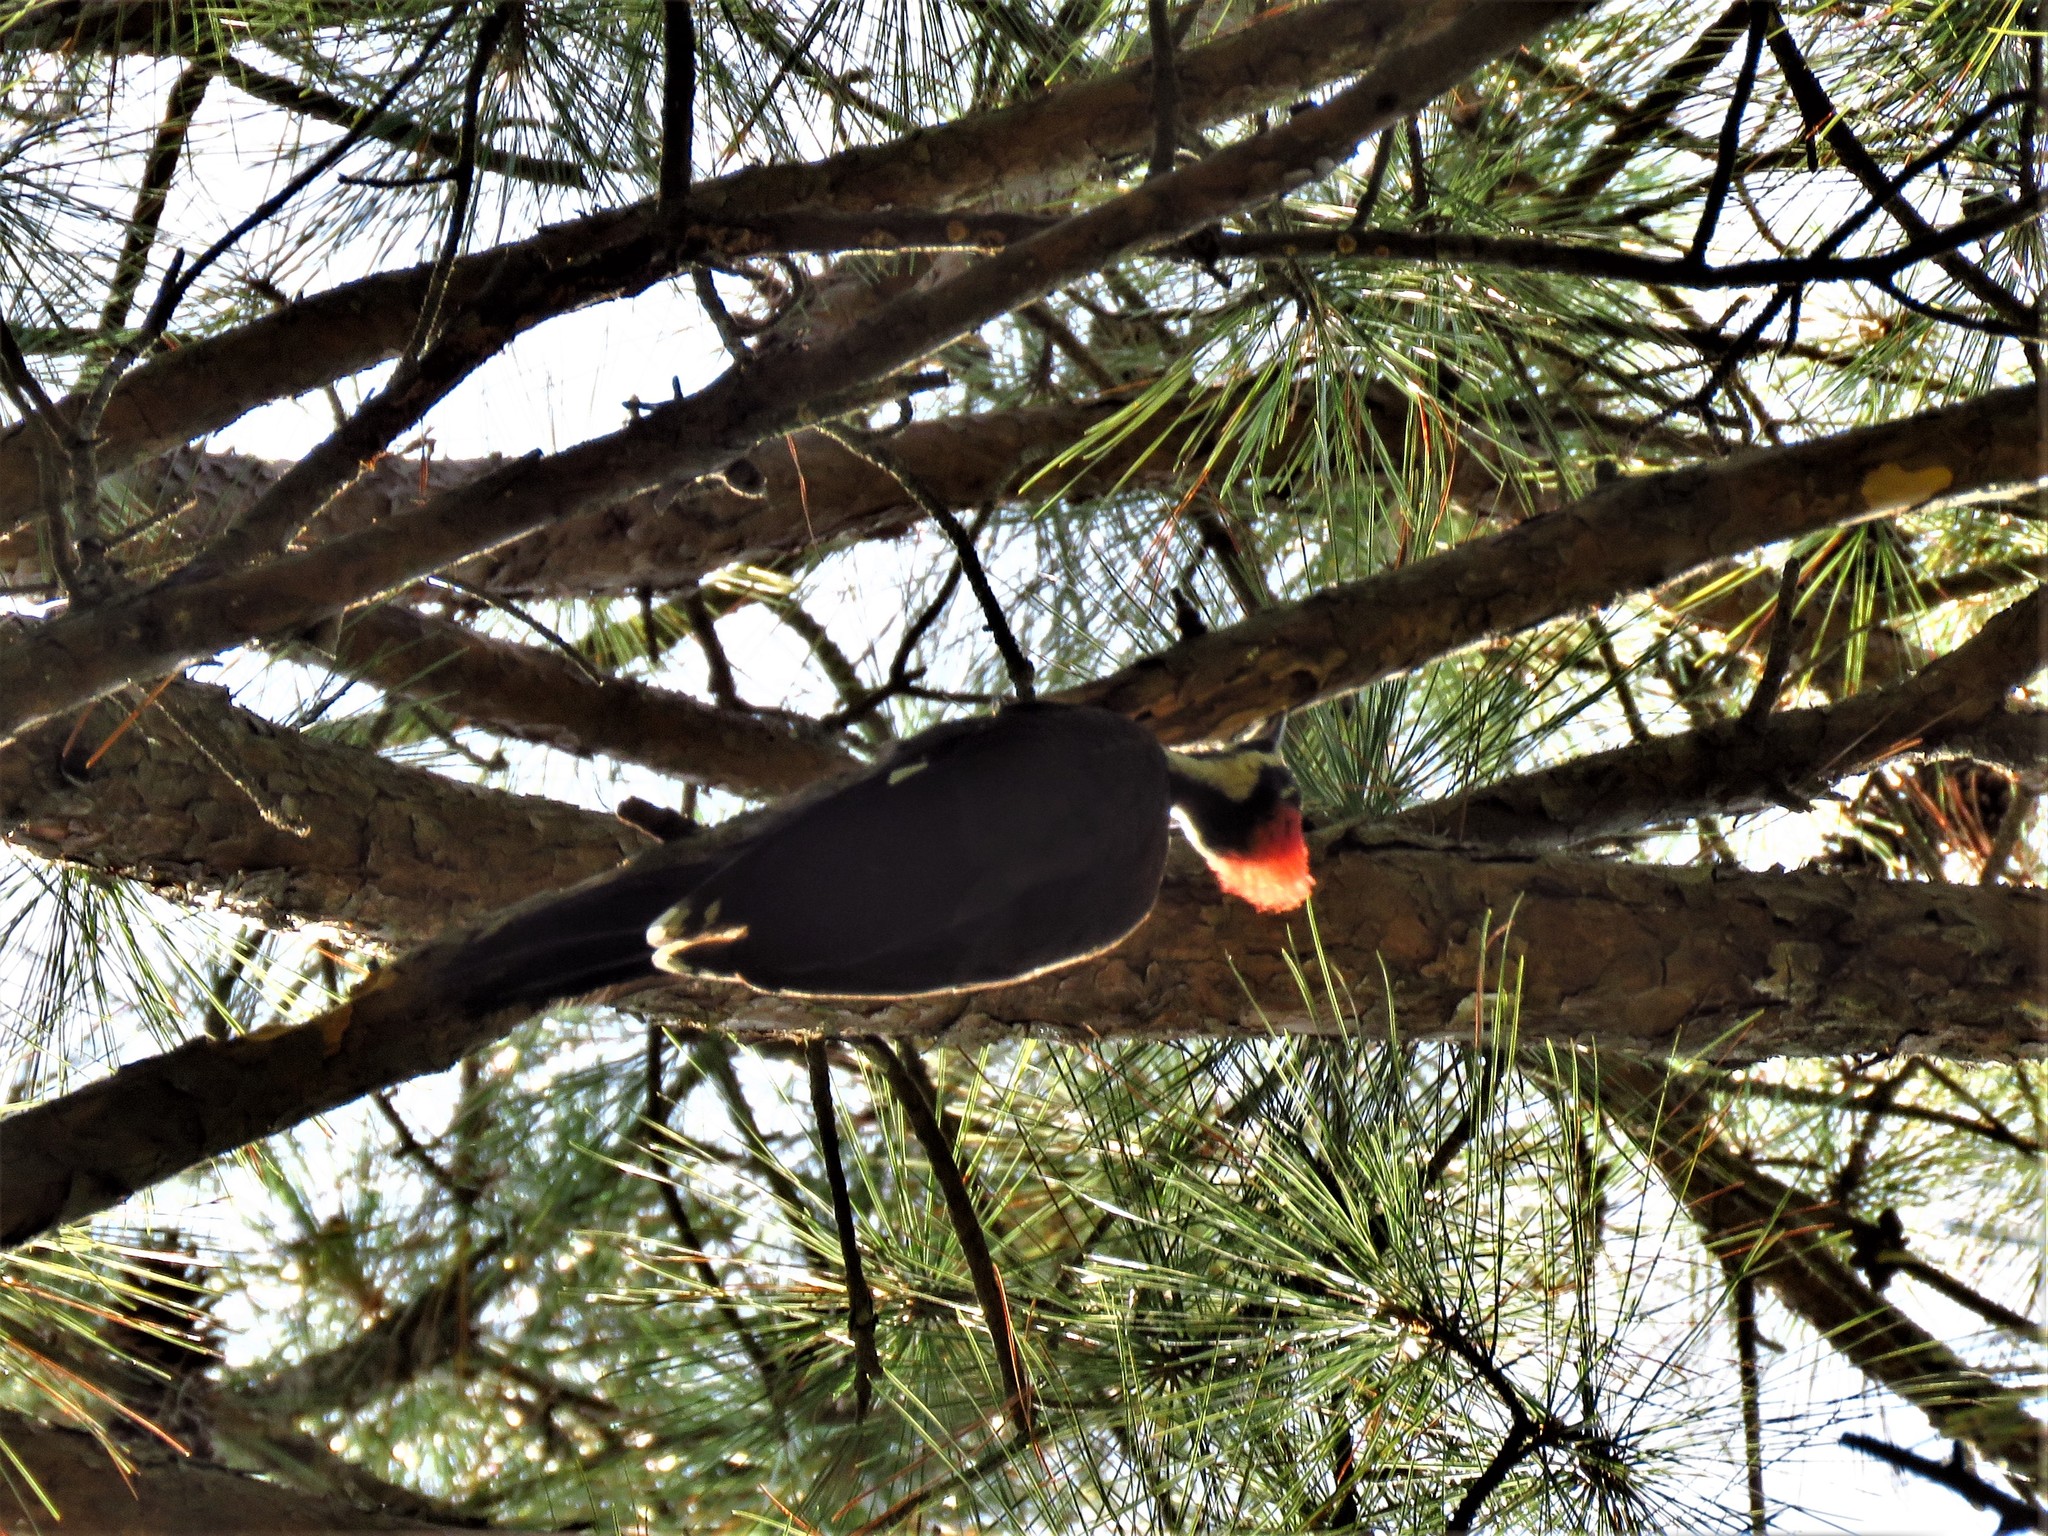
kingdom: Animalia
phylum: Chordata
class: Aves
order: Piciformes
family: Picidae
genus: Dryocopus
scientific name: Dryocopus pileatus
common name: Pileated woodpecker
